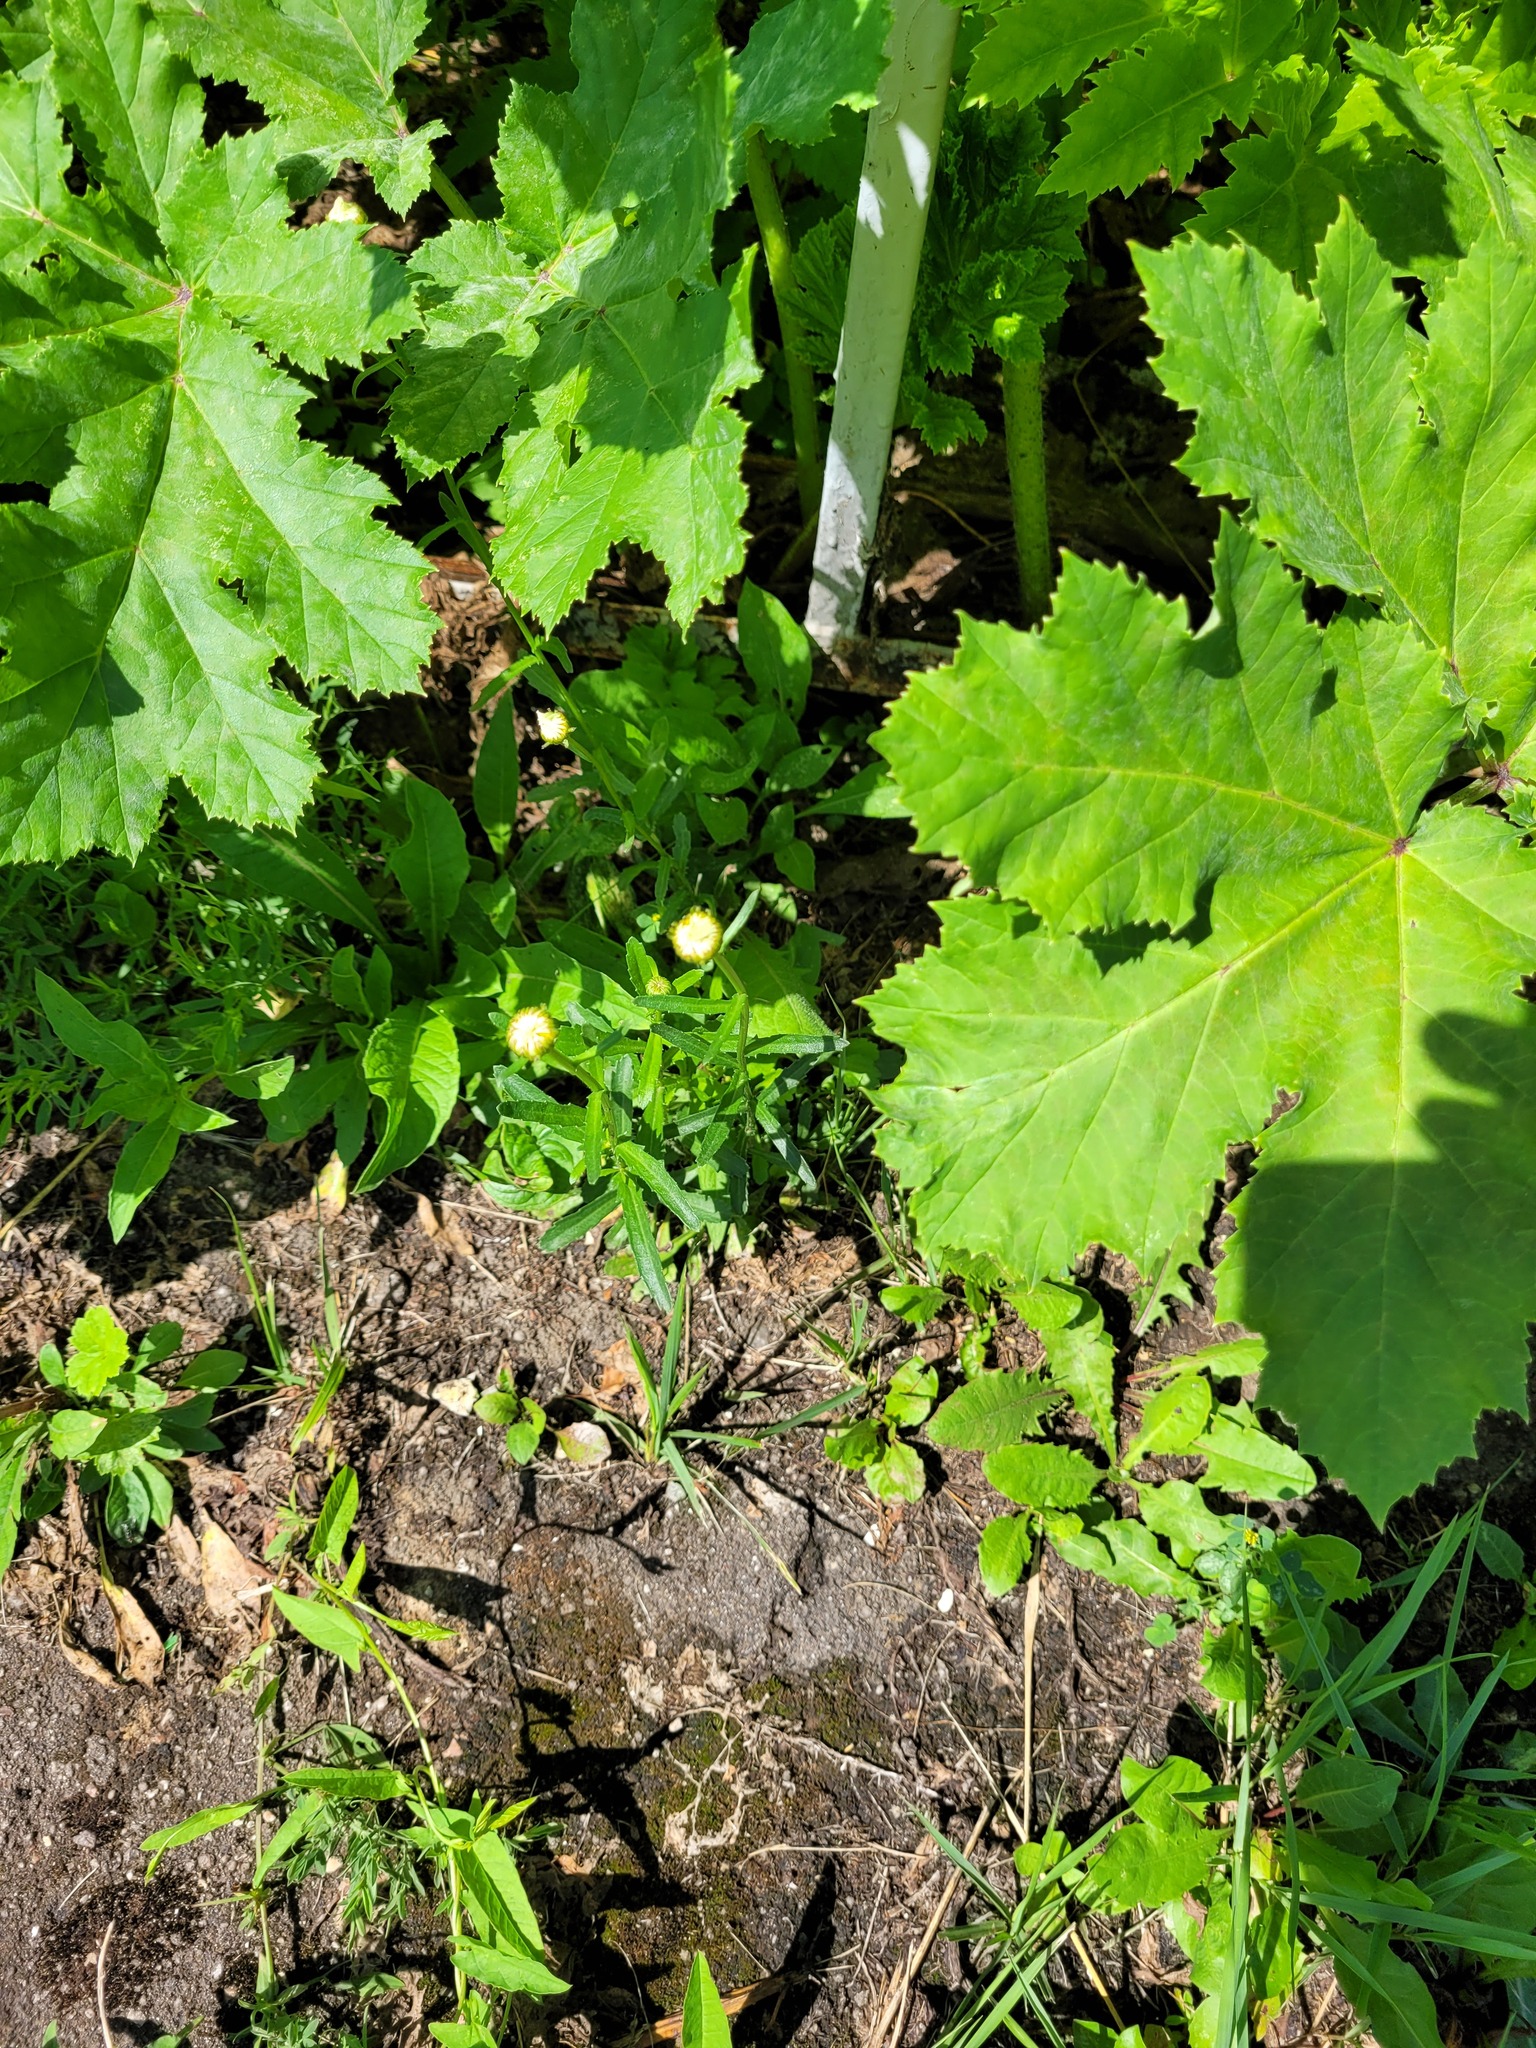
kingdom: Plantae
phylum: Tracheophyta
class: Magnoliopsida
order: Asterales
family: Asteraceae
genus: Leucanthemum
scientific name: Leucanthemum vulgare
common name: Oxeye daisy
